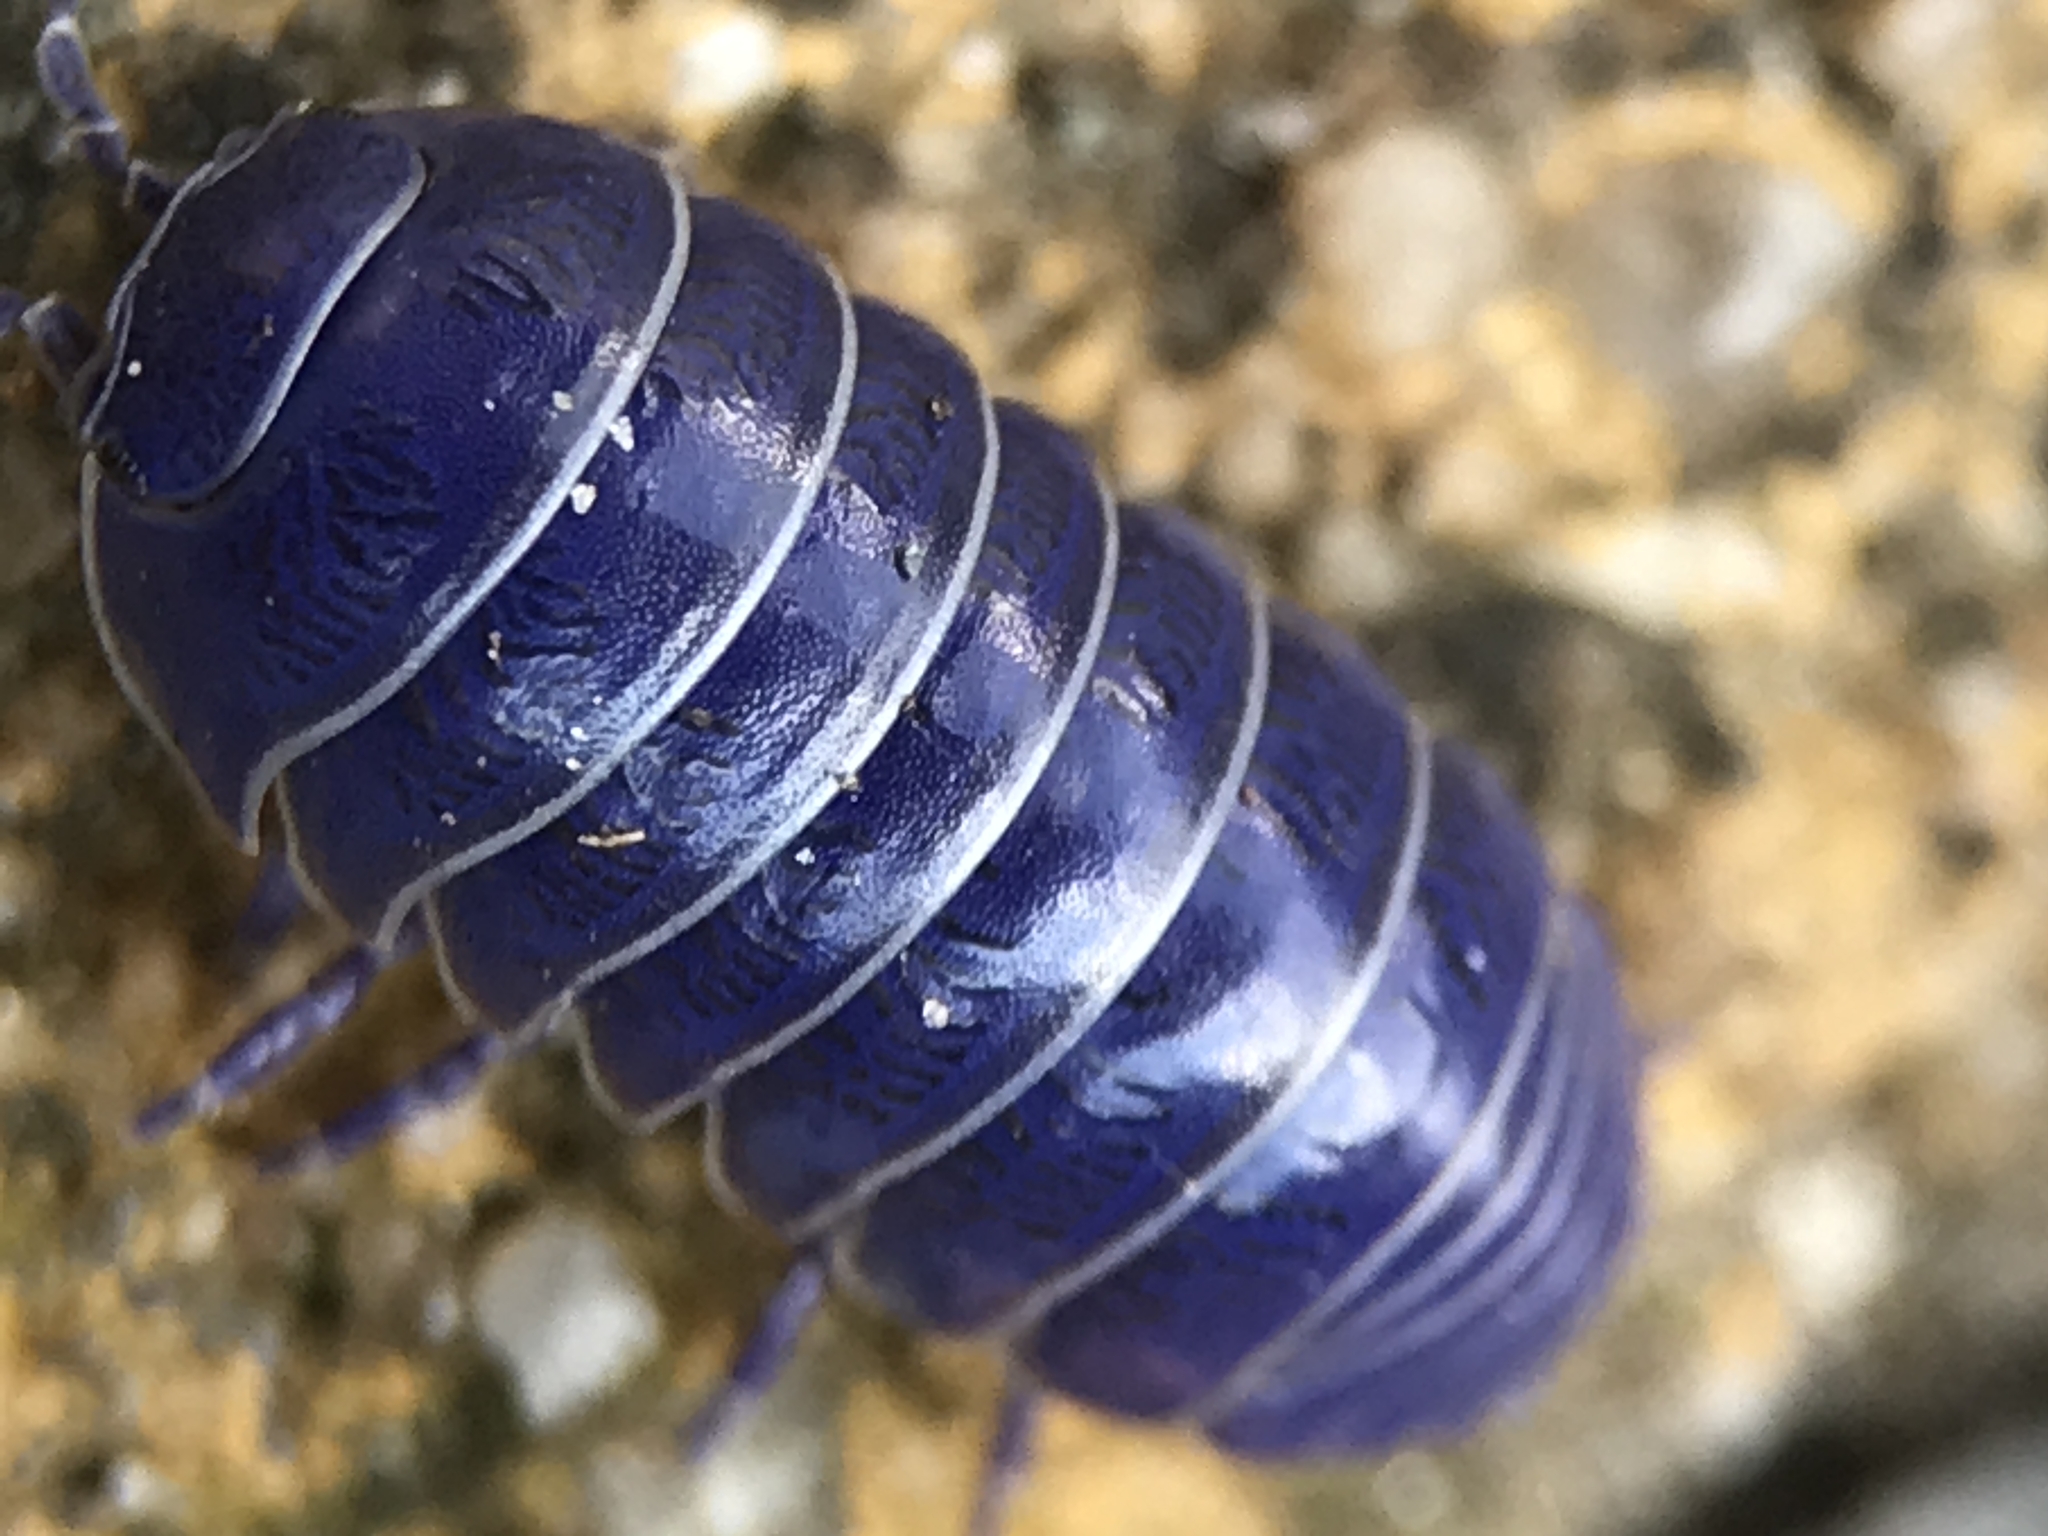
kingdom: Viruses
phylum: Nucleocytoviricota
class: Megaviricetes
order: Pimascovirales
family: Iridoviridae
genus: Iridovirus
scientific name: Iridovirus Invertebrate iridescent virus 31
